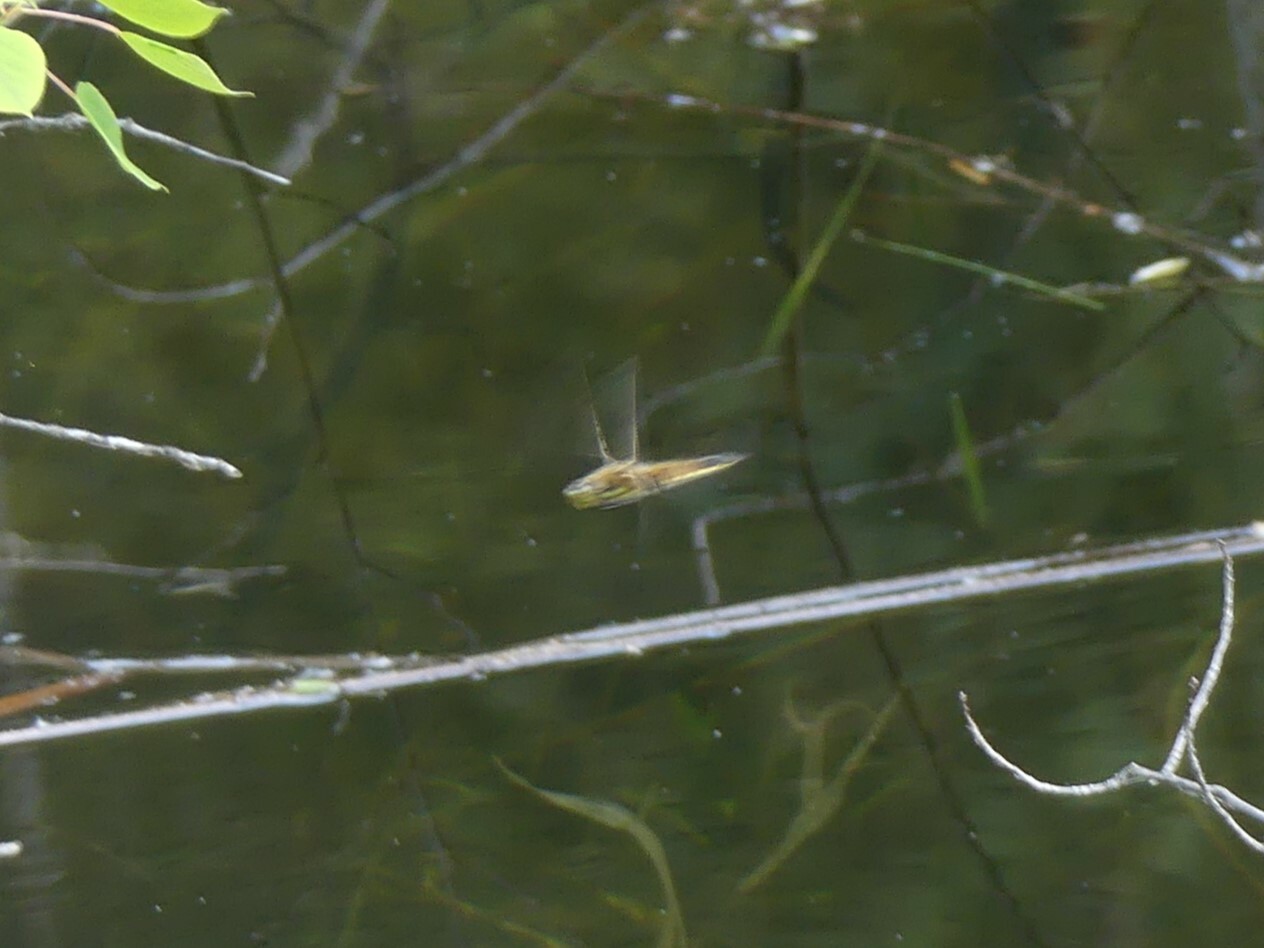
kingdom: Animalia
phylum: Arthropoda
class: Insecta
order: Odonata
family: Libellulidae
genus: Libellula
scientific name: Libellula quadrimaculata
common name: Four-spotted chaser
